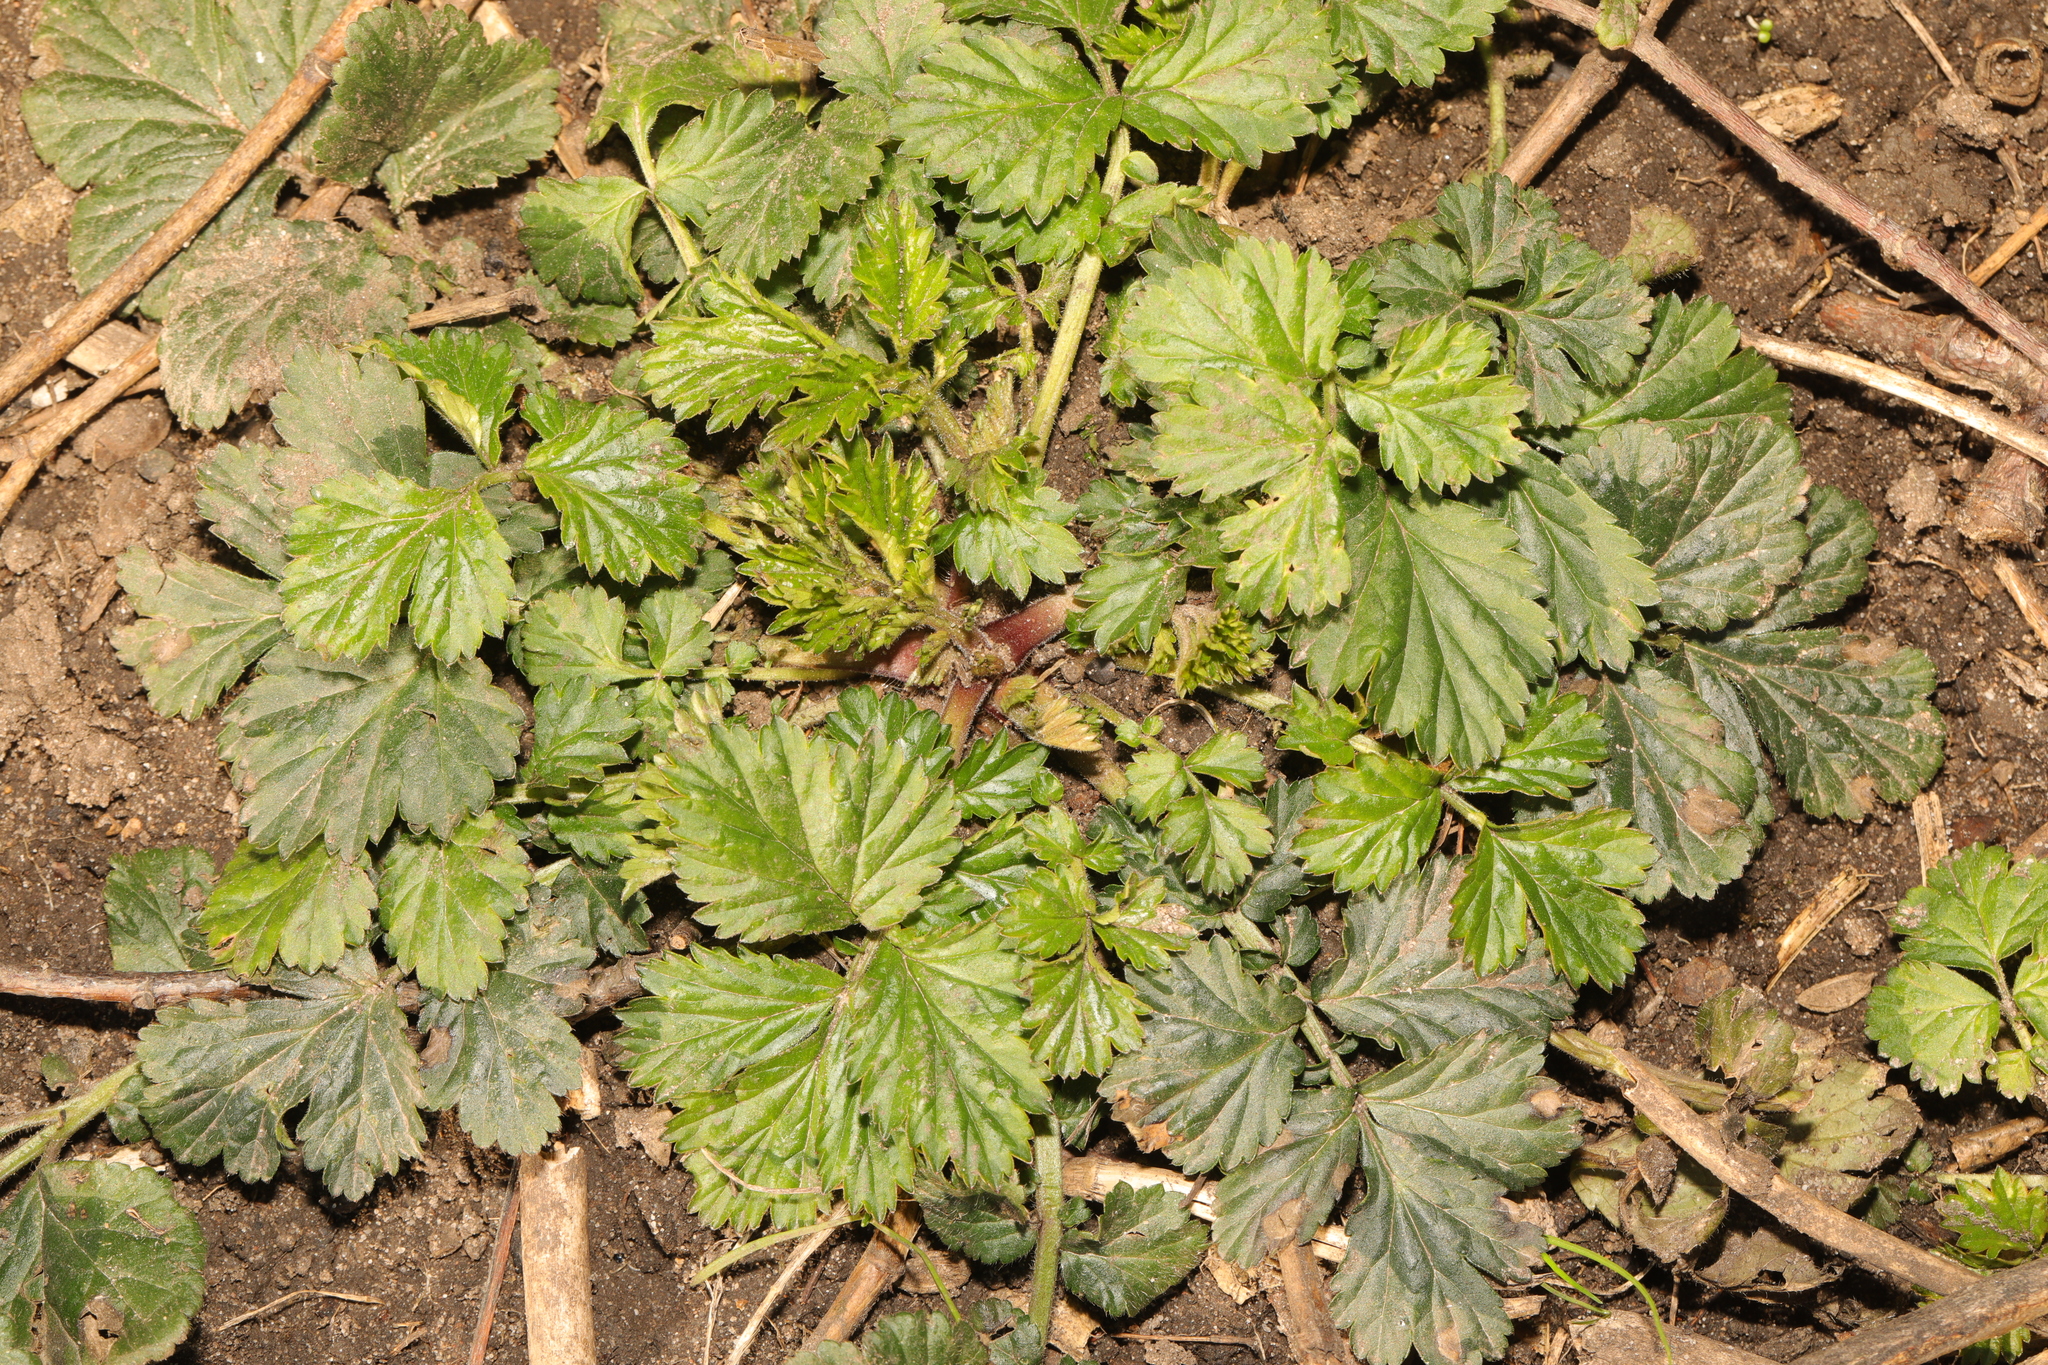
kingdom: Plantae
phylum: Tracheophyta
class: Magnoliopsida
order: Rosales
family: Rosaceae
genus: Geum
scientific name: Geum urbanum
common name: Wood avens
